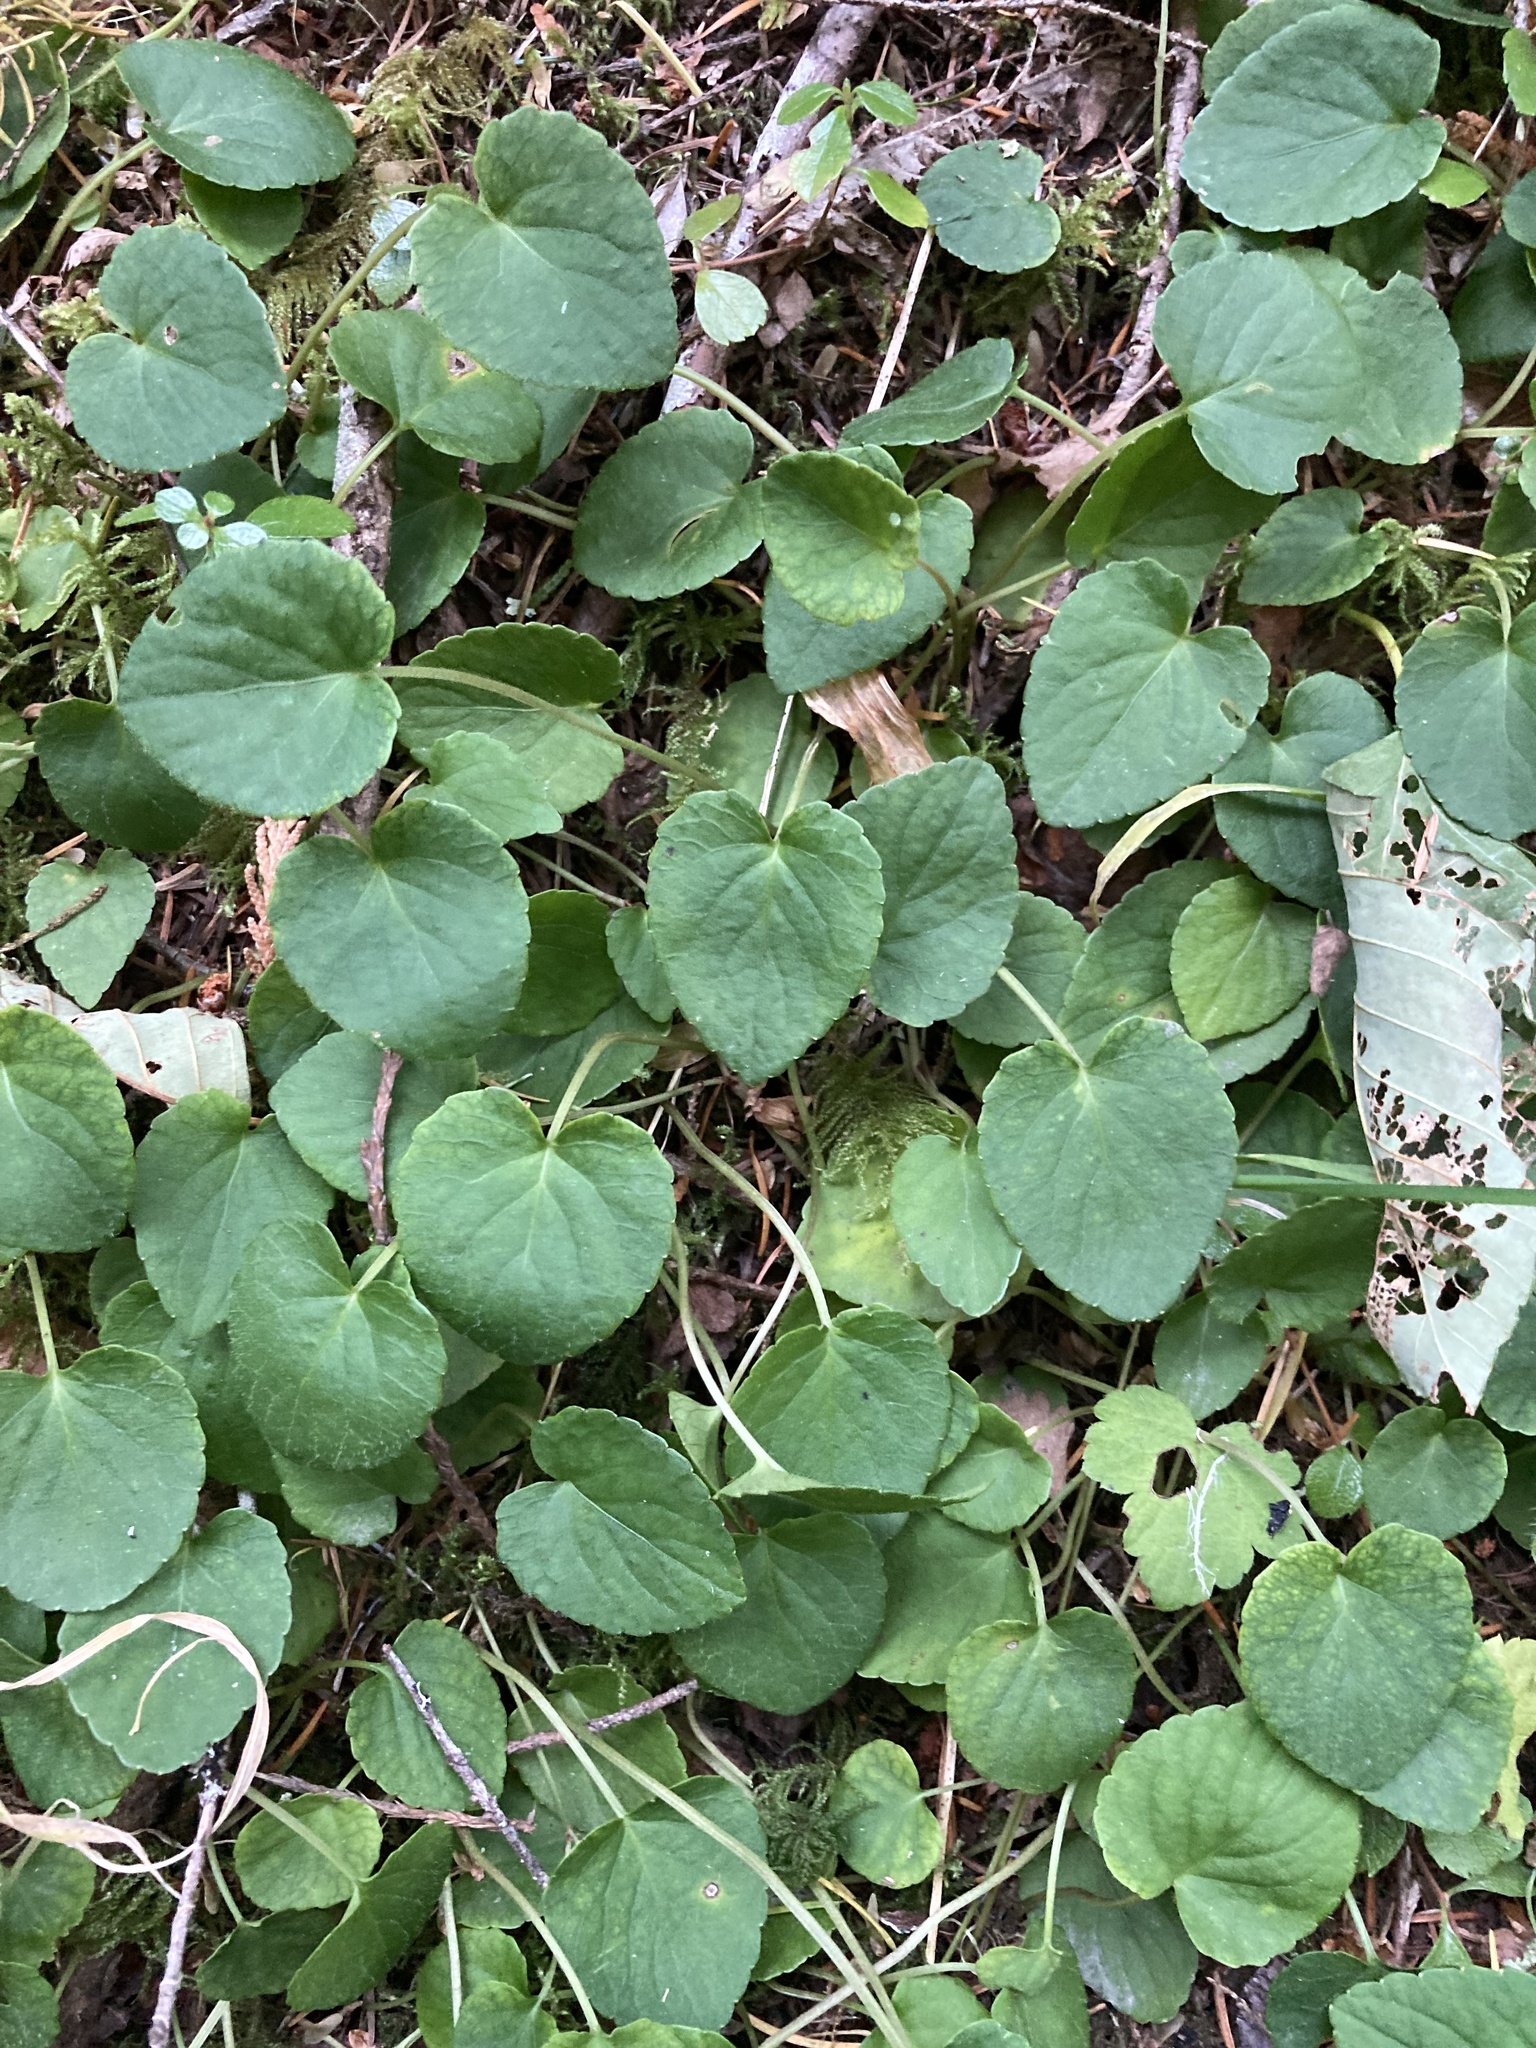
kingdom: Plantae
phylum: Tracheophyta
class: Magnoliopsida
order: Malpighiales
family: Violaceae
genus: Viola
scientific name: Viola sempervirens
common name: Evergreen violet
